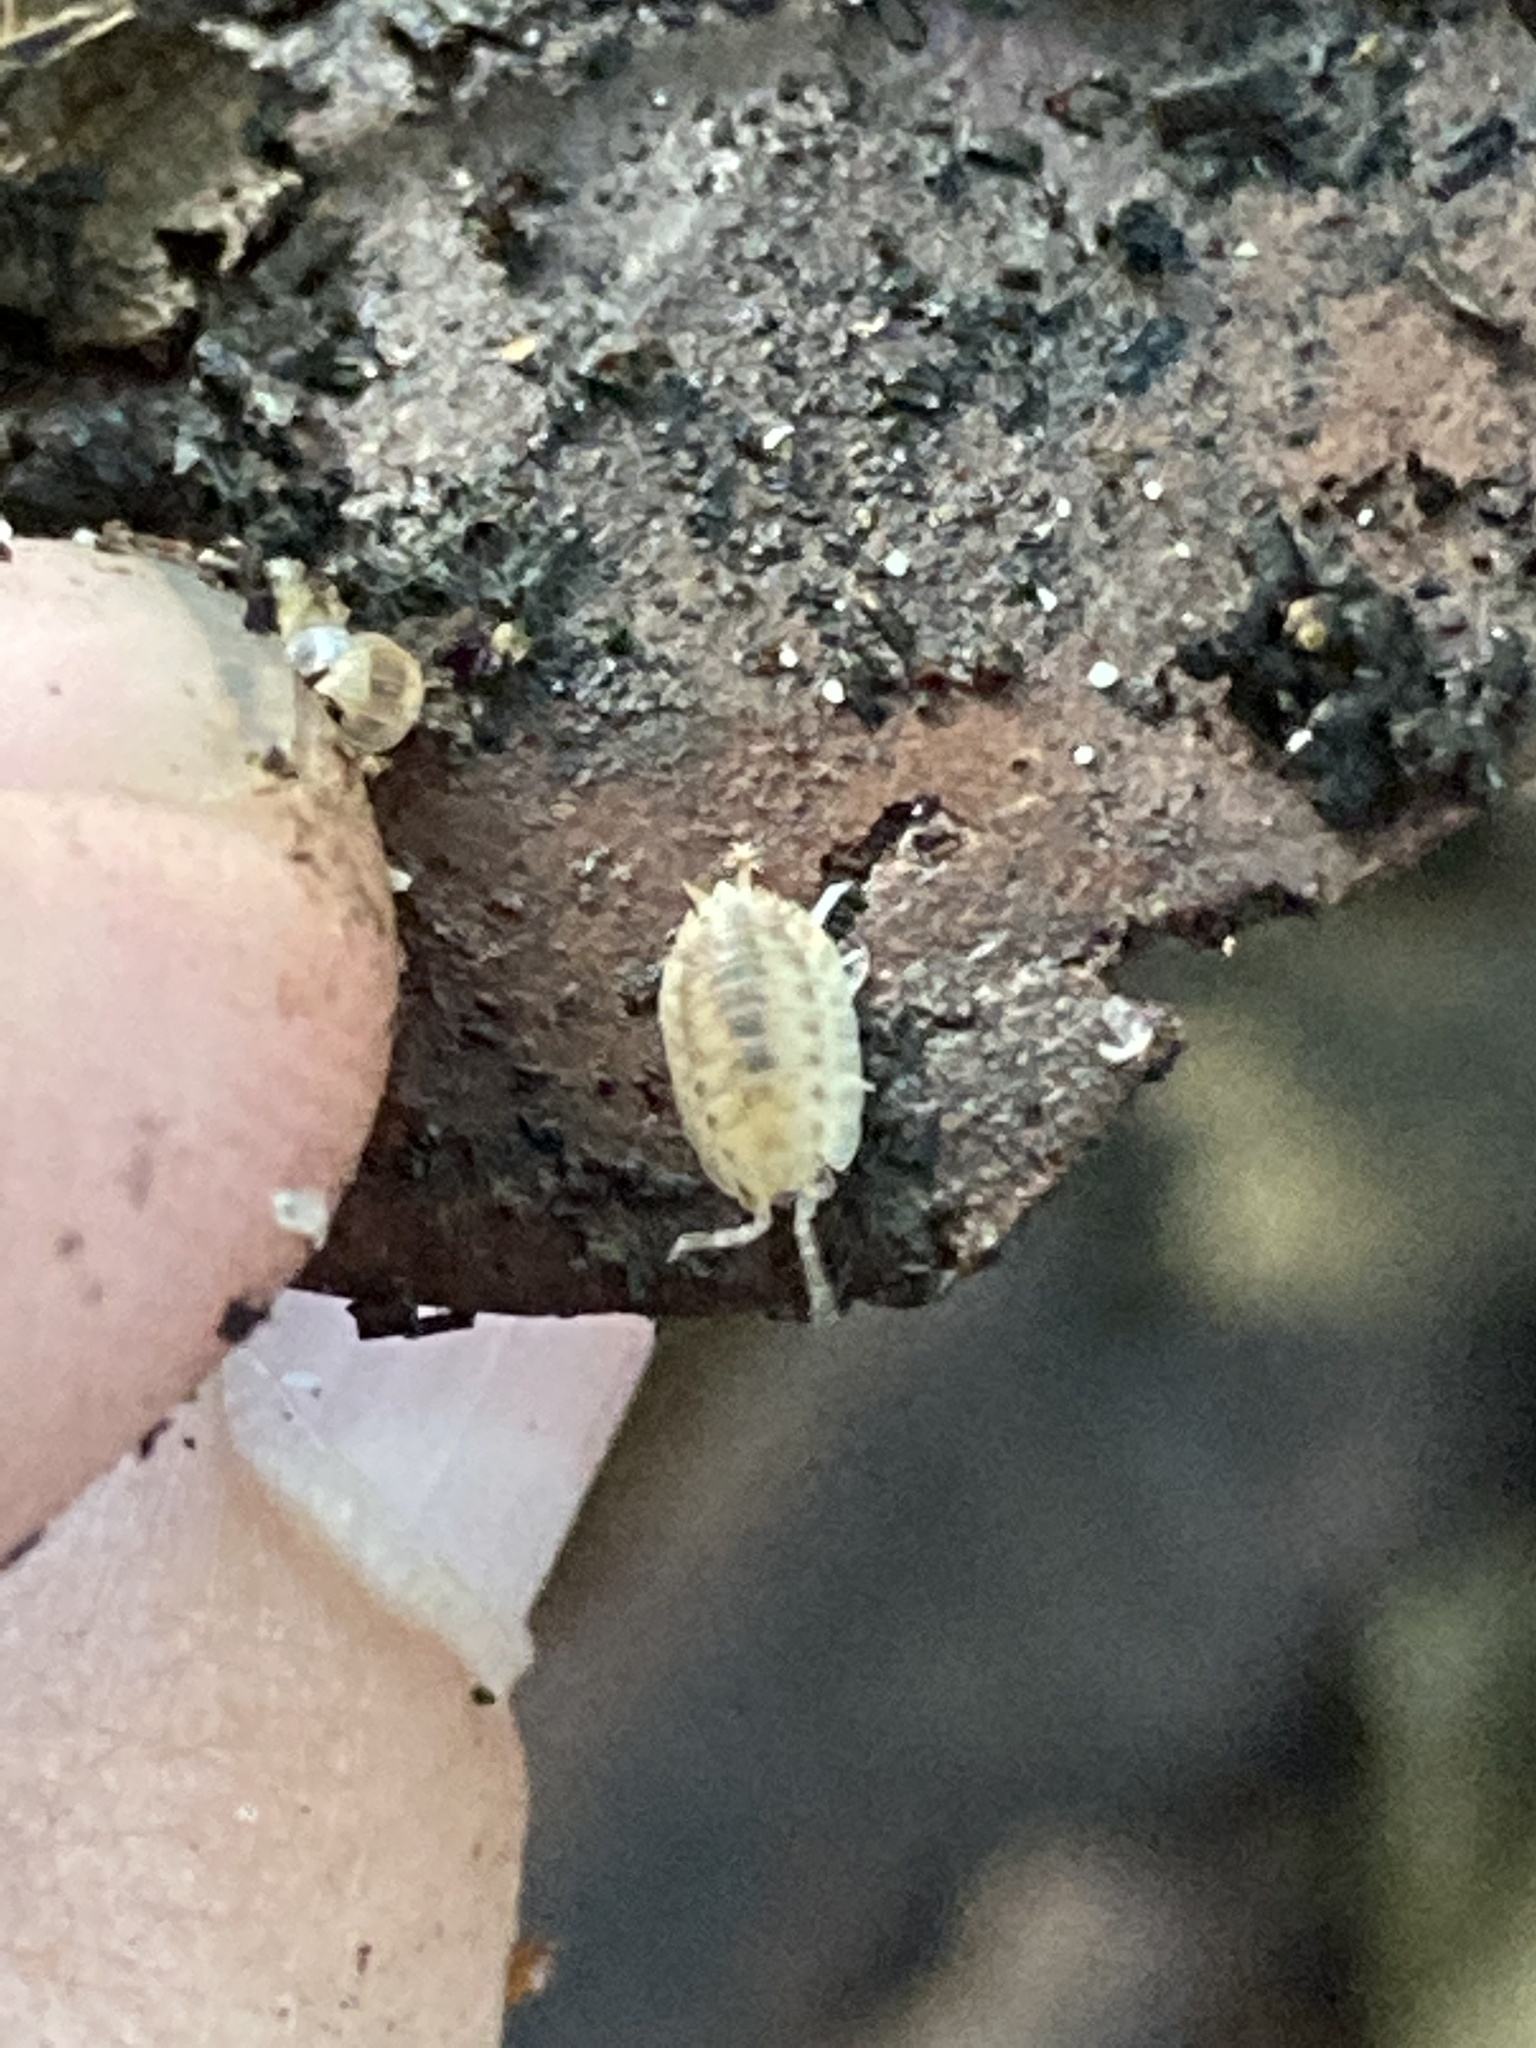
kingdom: Animalia
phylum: Arthropoda
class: Malacostraca
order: Isopoda
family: Porcellionidae
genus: Agabiformius
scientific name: Agabiformius lentus
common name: Pillbug
